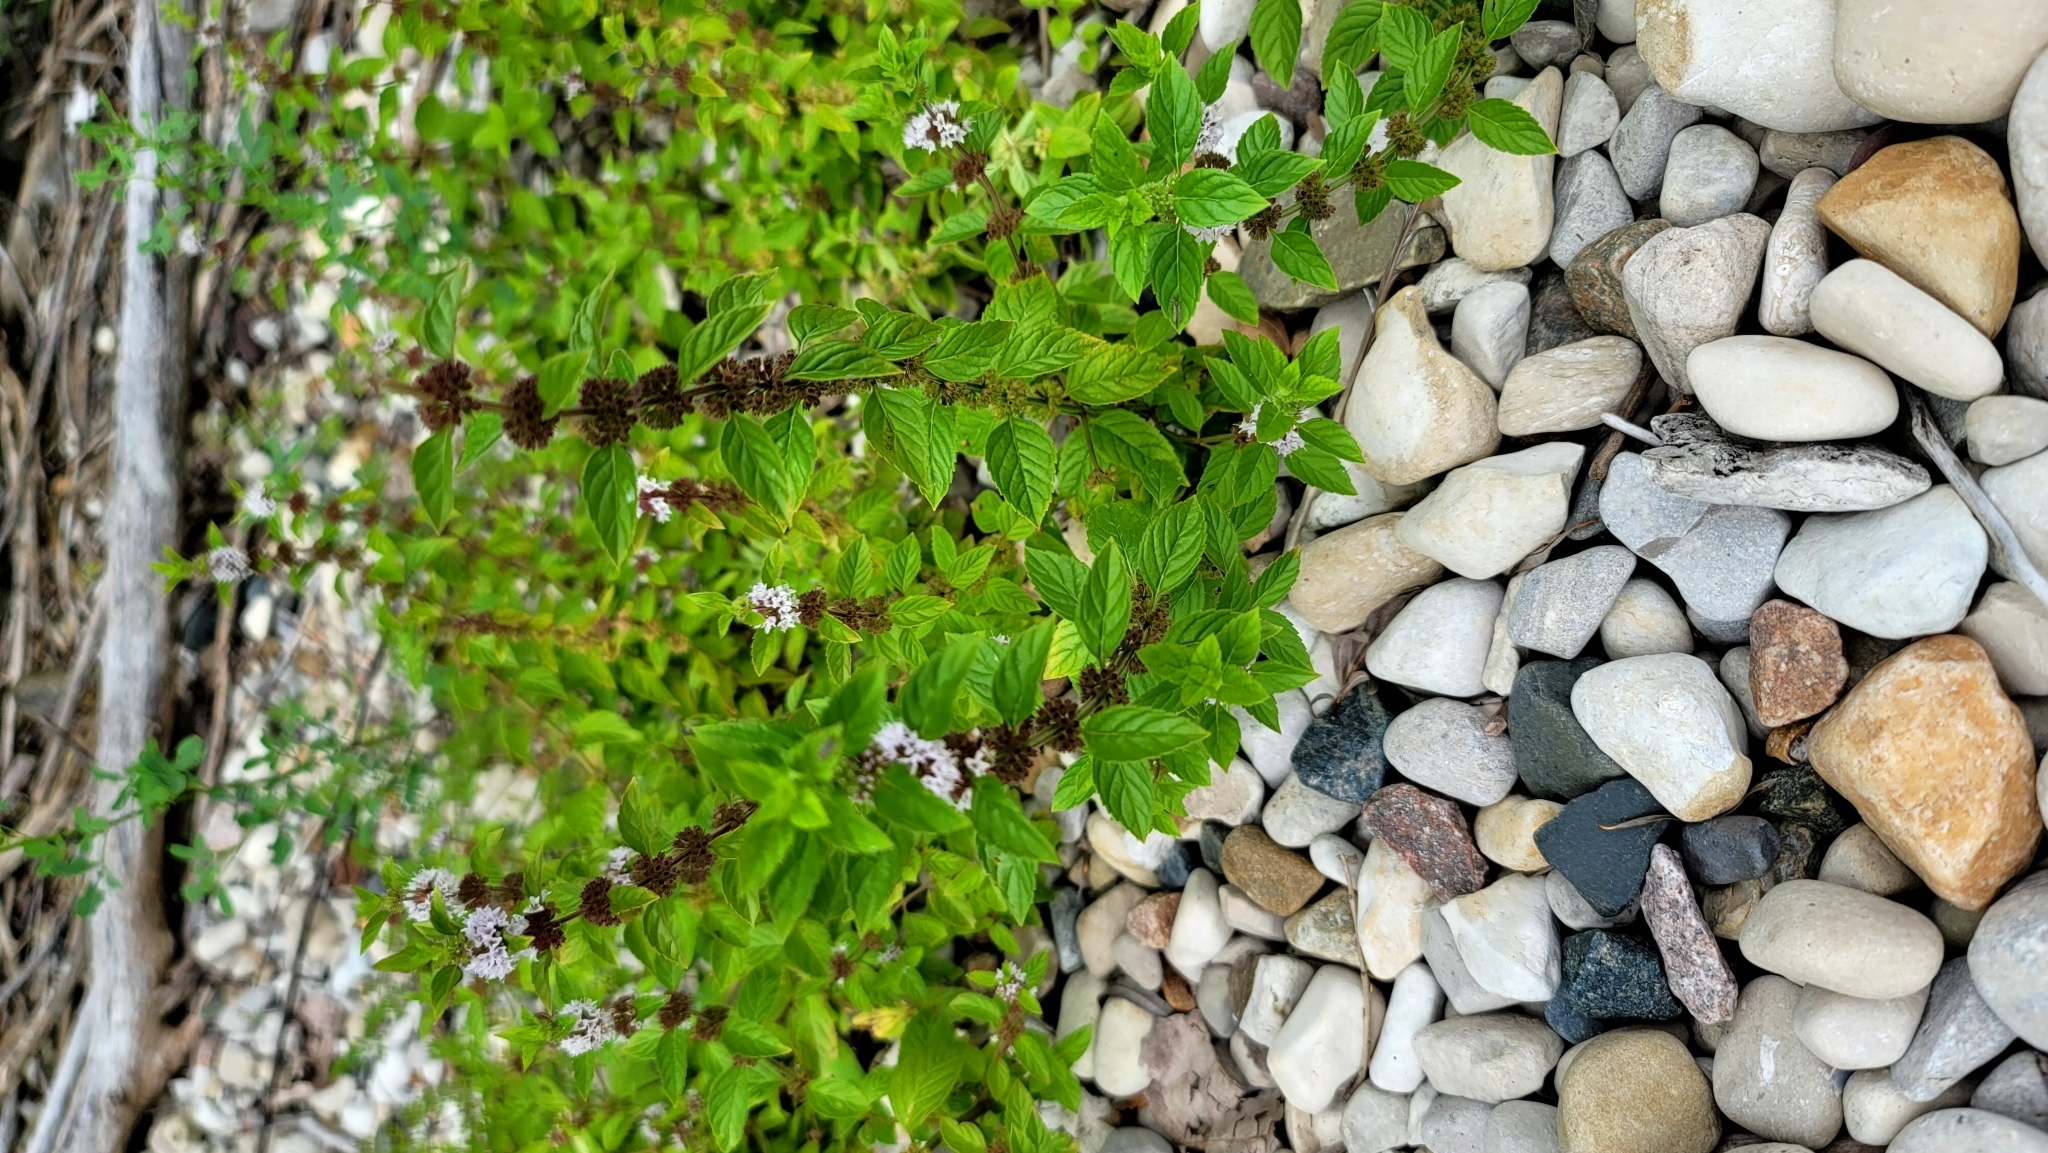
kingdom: Plantae
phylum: Tracheophyta
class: Magnoliopsida
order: Lamiales
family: Lamiaceae
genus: Mentha
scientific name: Mentha canadensis
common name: American corn mint
